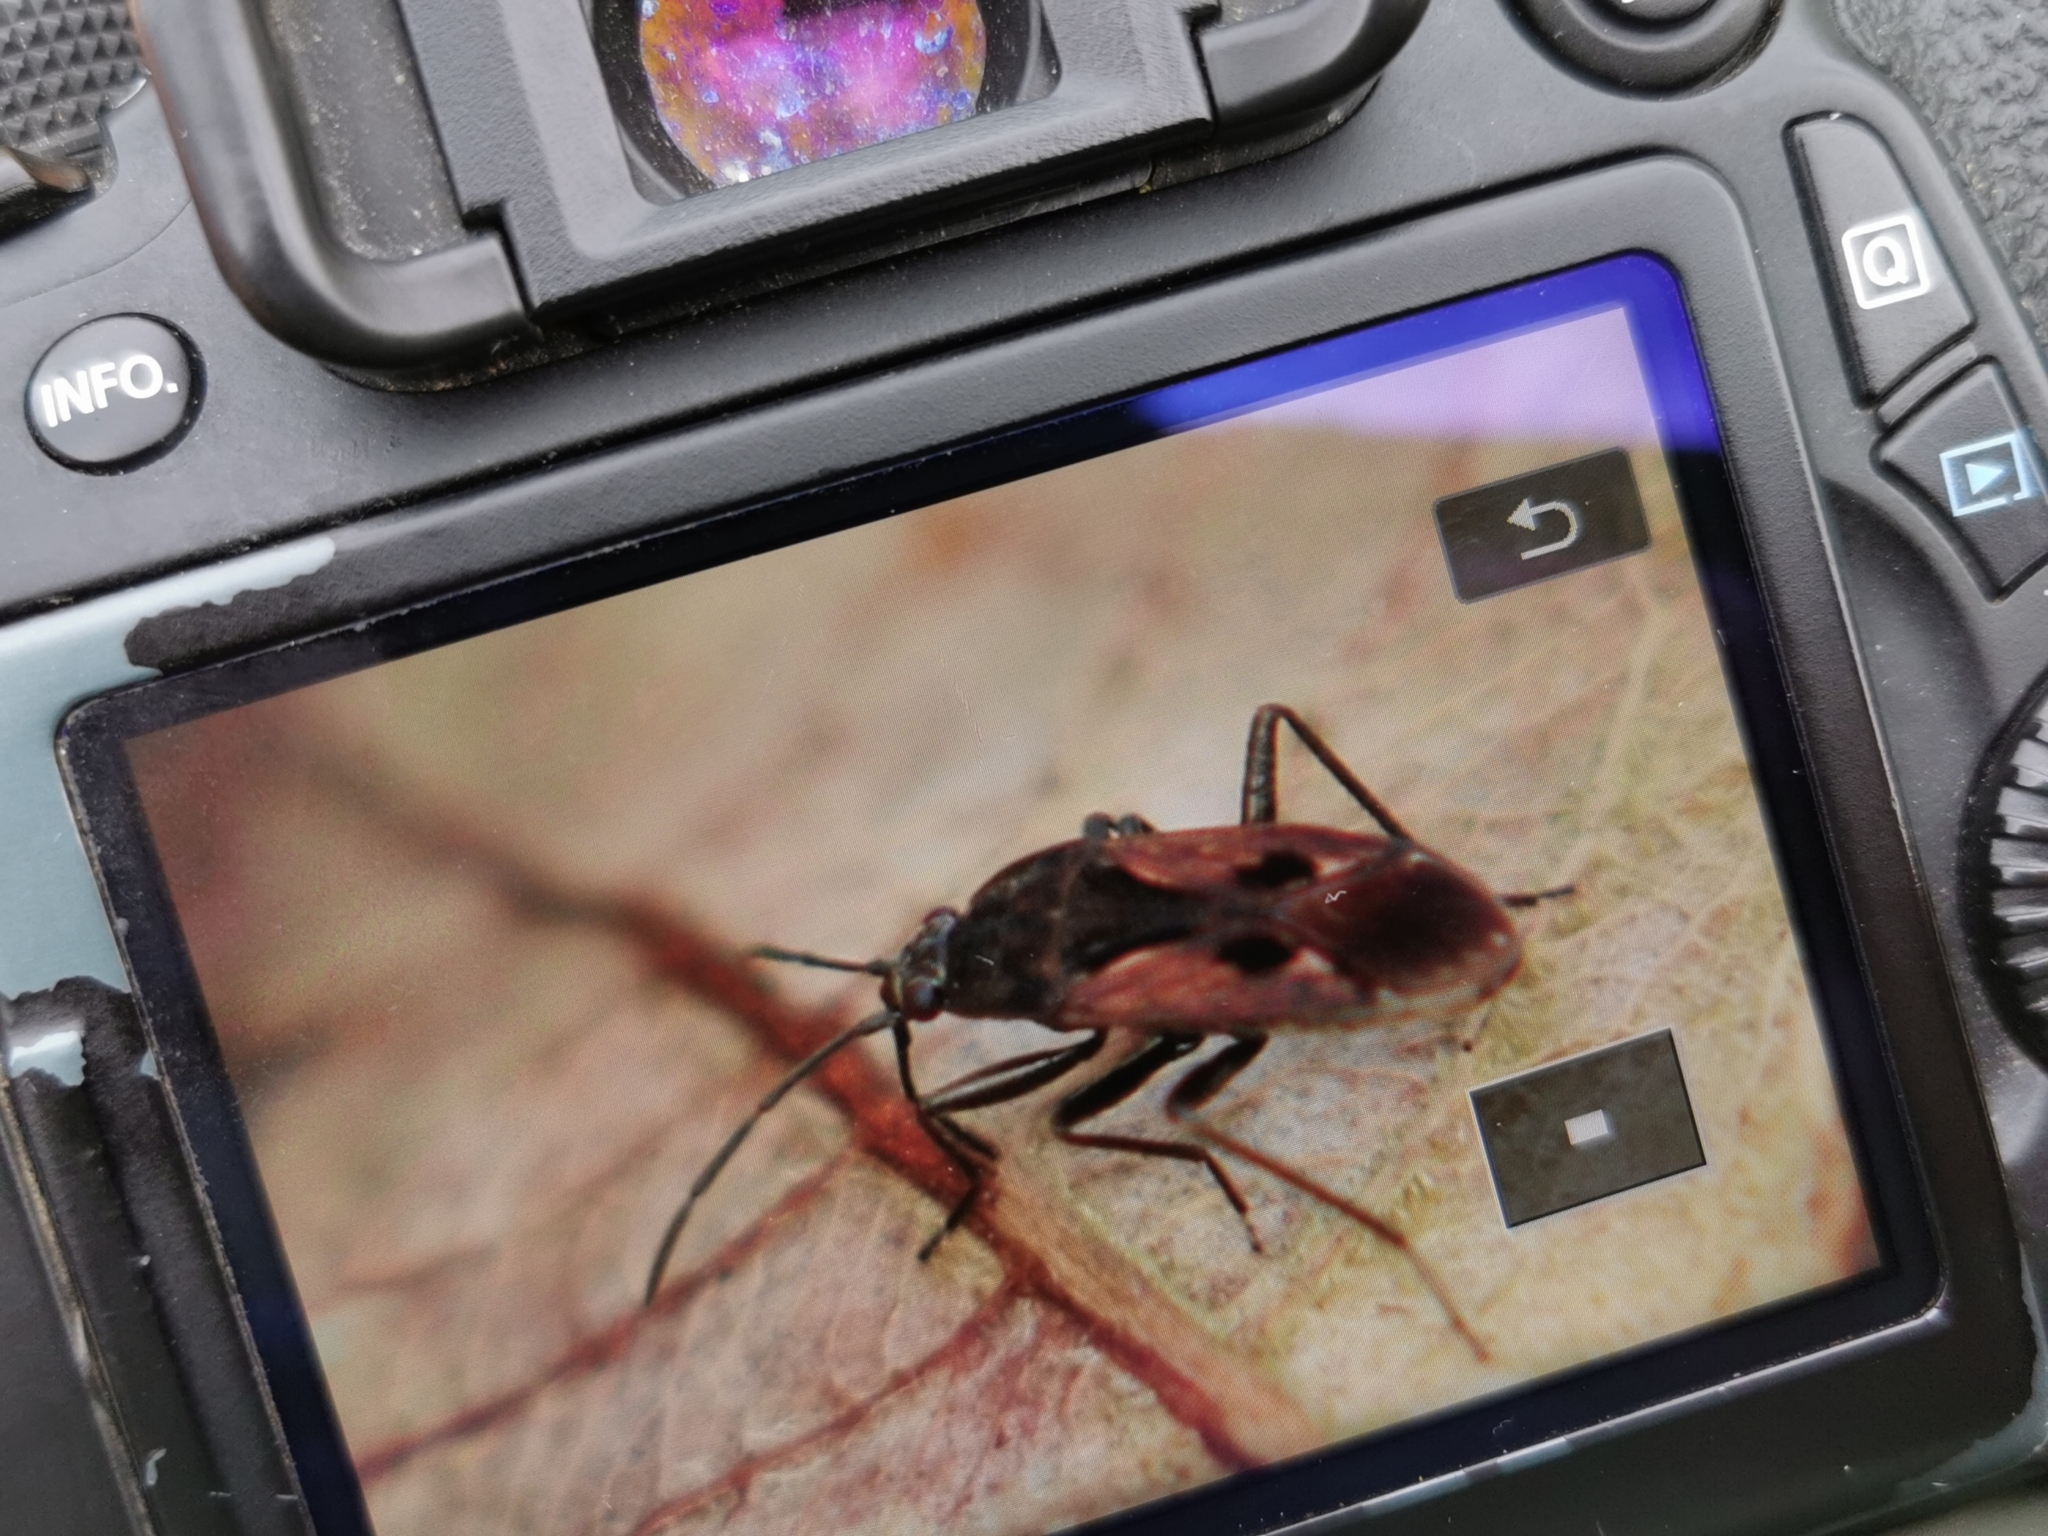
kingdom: Animalia
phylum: Arthropoda
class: Insecta
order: Hemiptera
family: Rhyparochromidae
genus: Rhyparochromus
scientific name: Rhyparochromus pini
